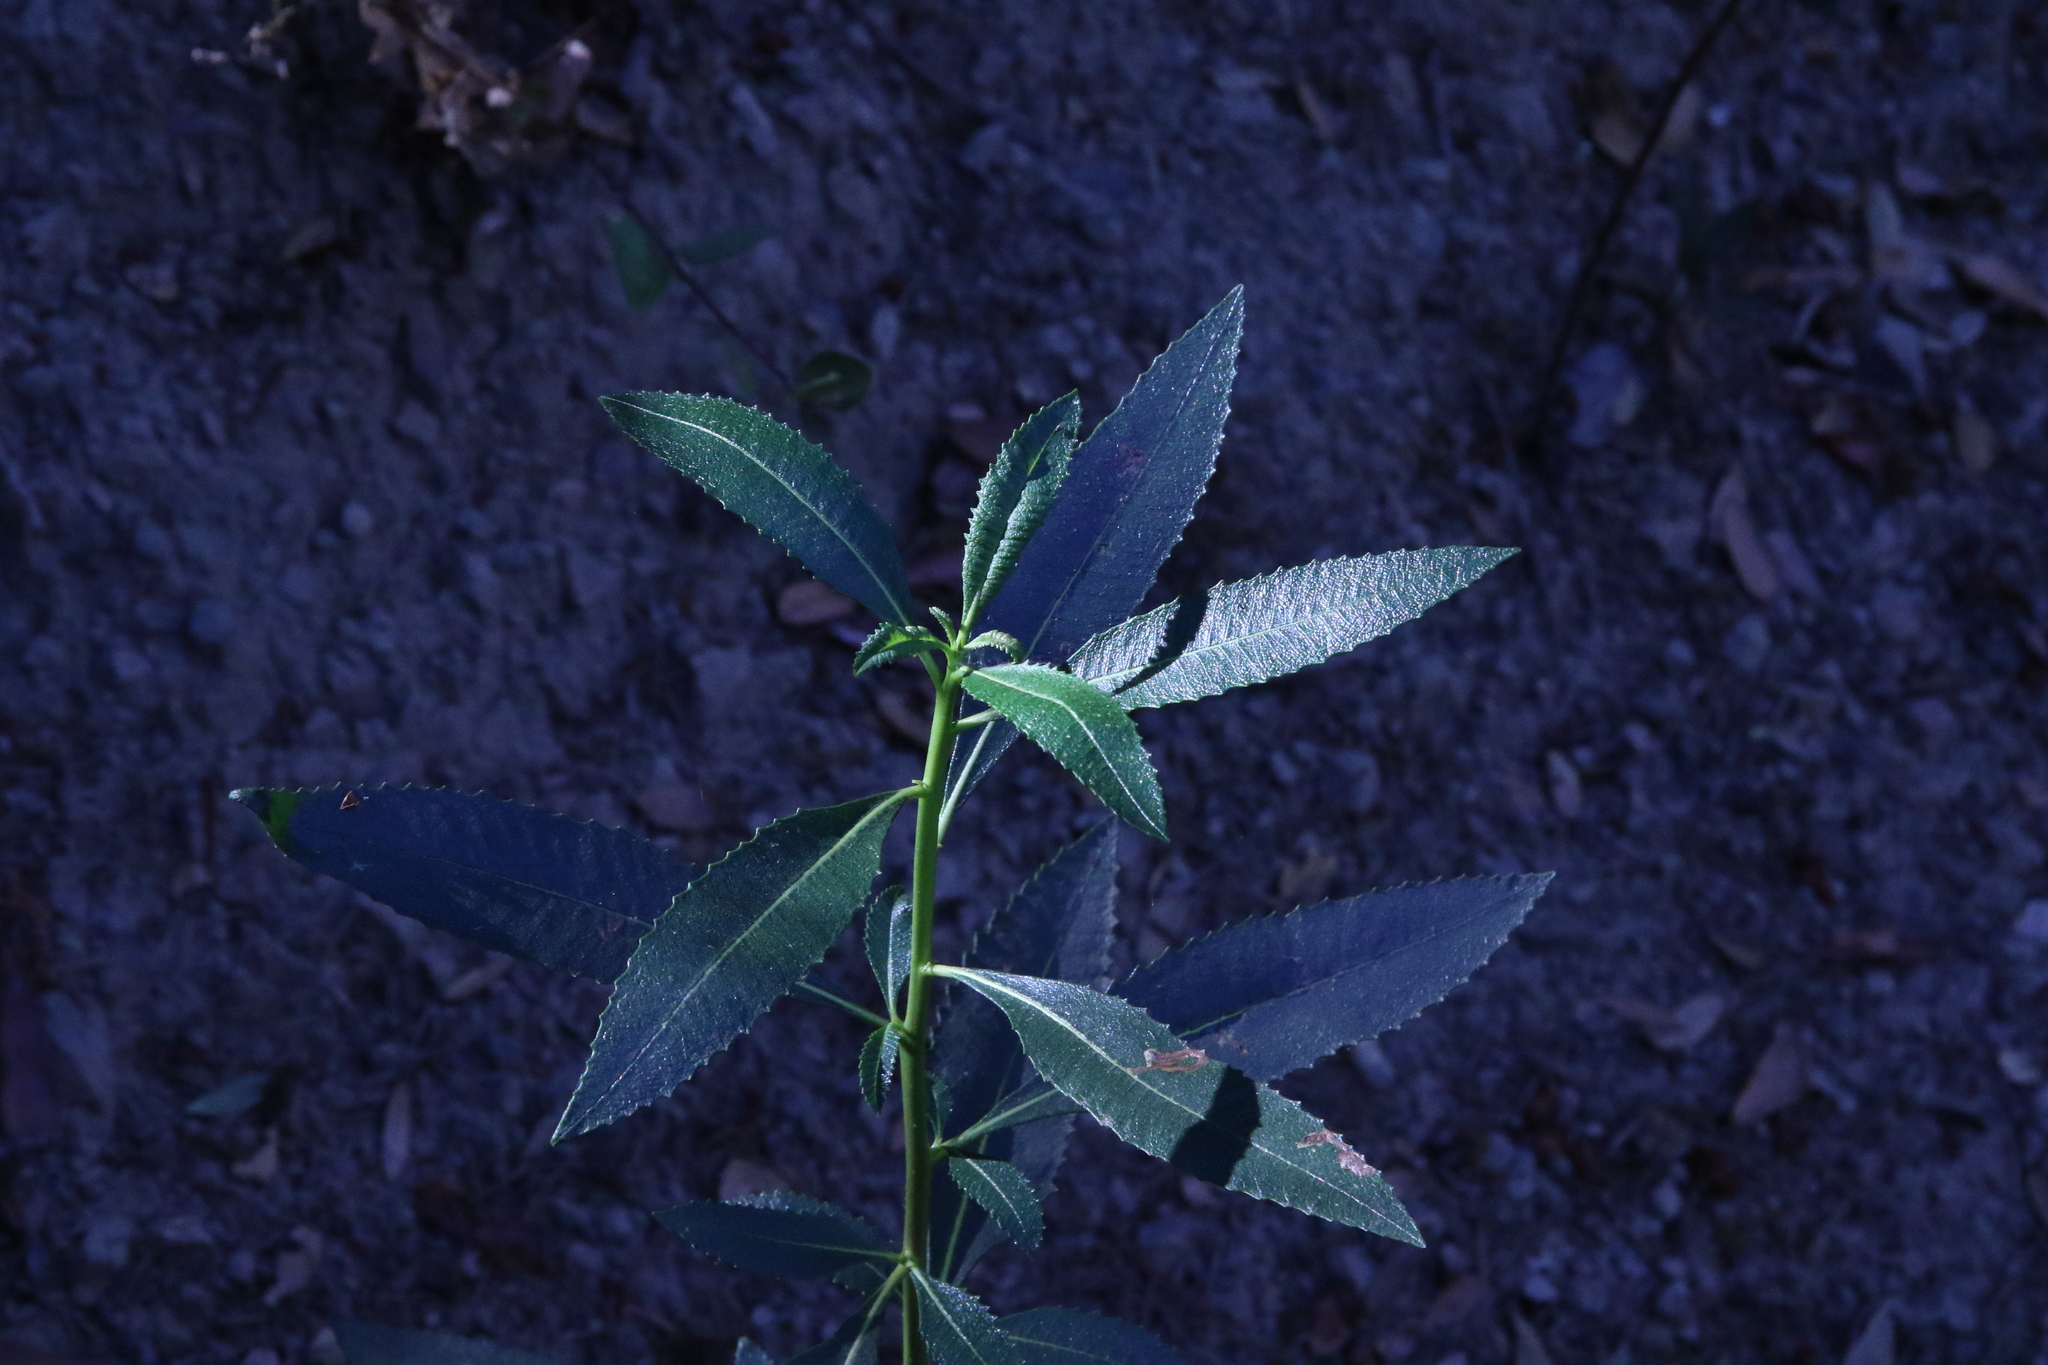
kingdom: Plantae
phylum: Tracheophyta
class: Magnoliopsida
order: Boraginales
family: Namaceae
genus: Eriodictyon
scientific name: Eriodictyon californicum
